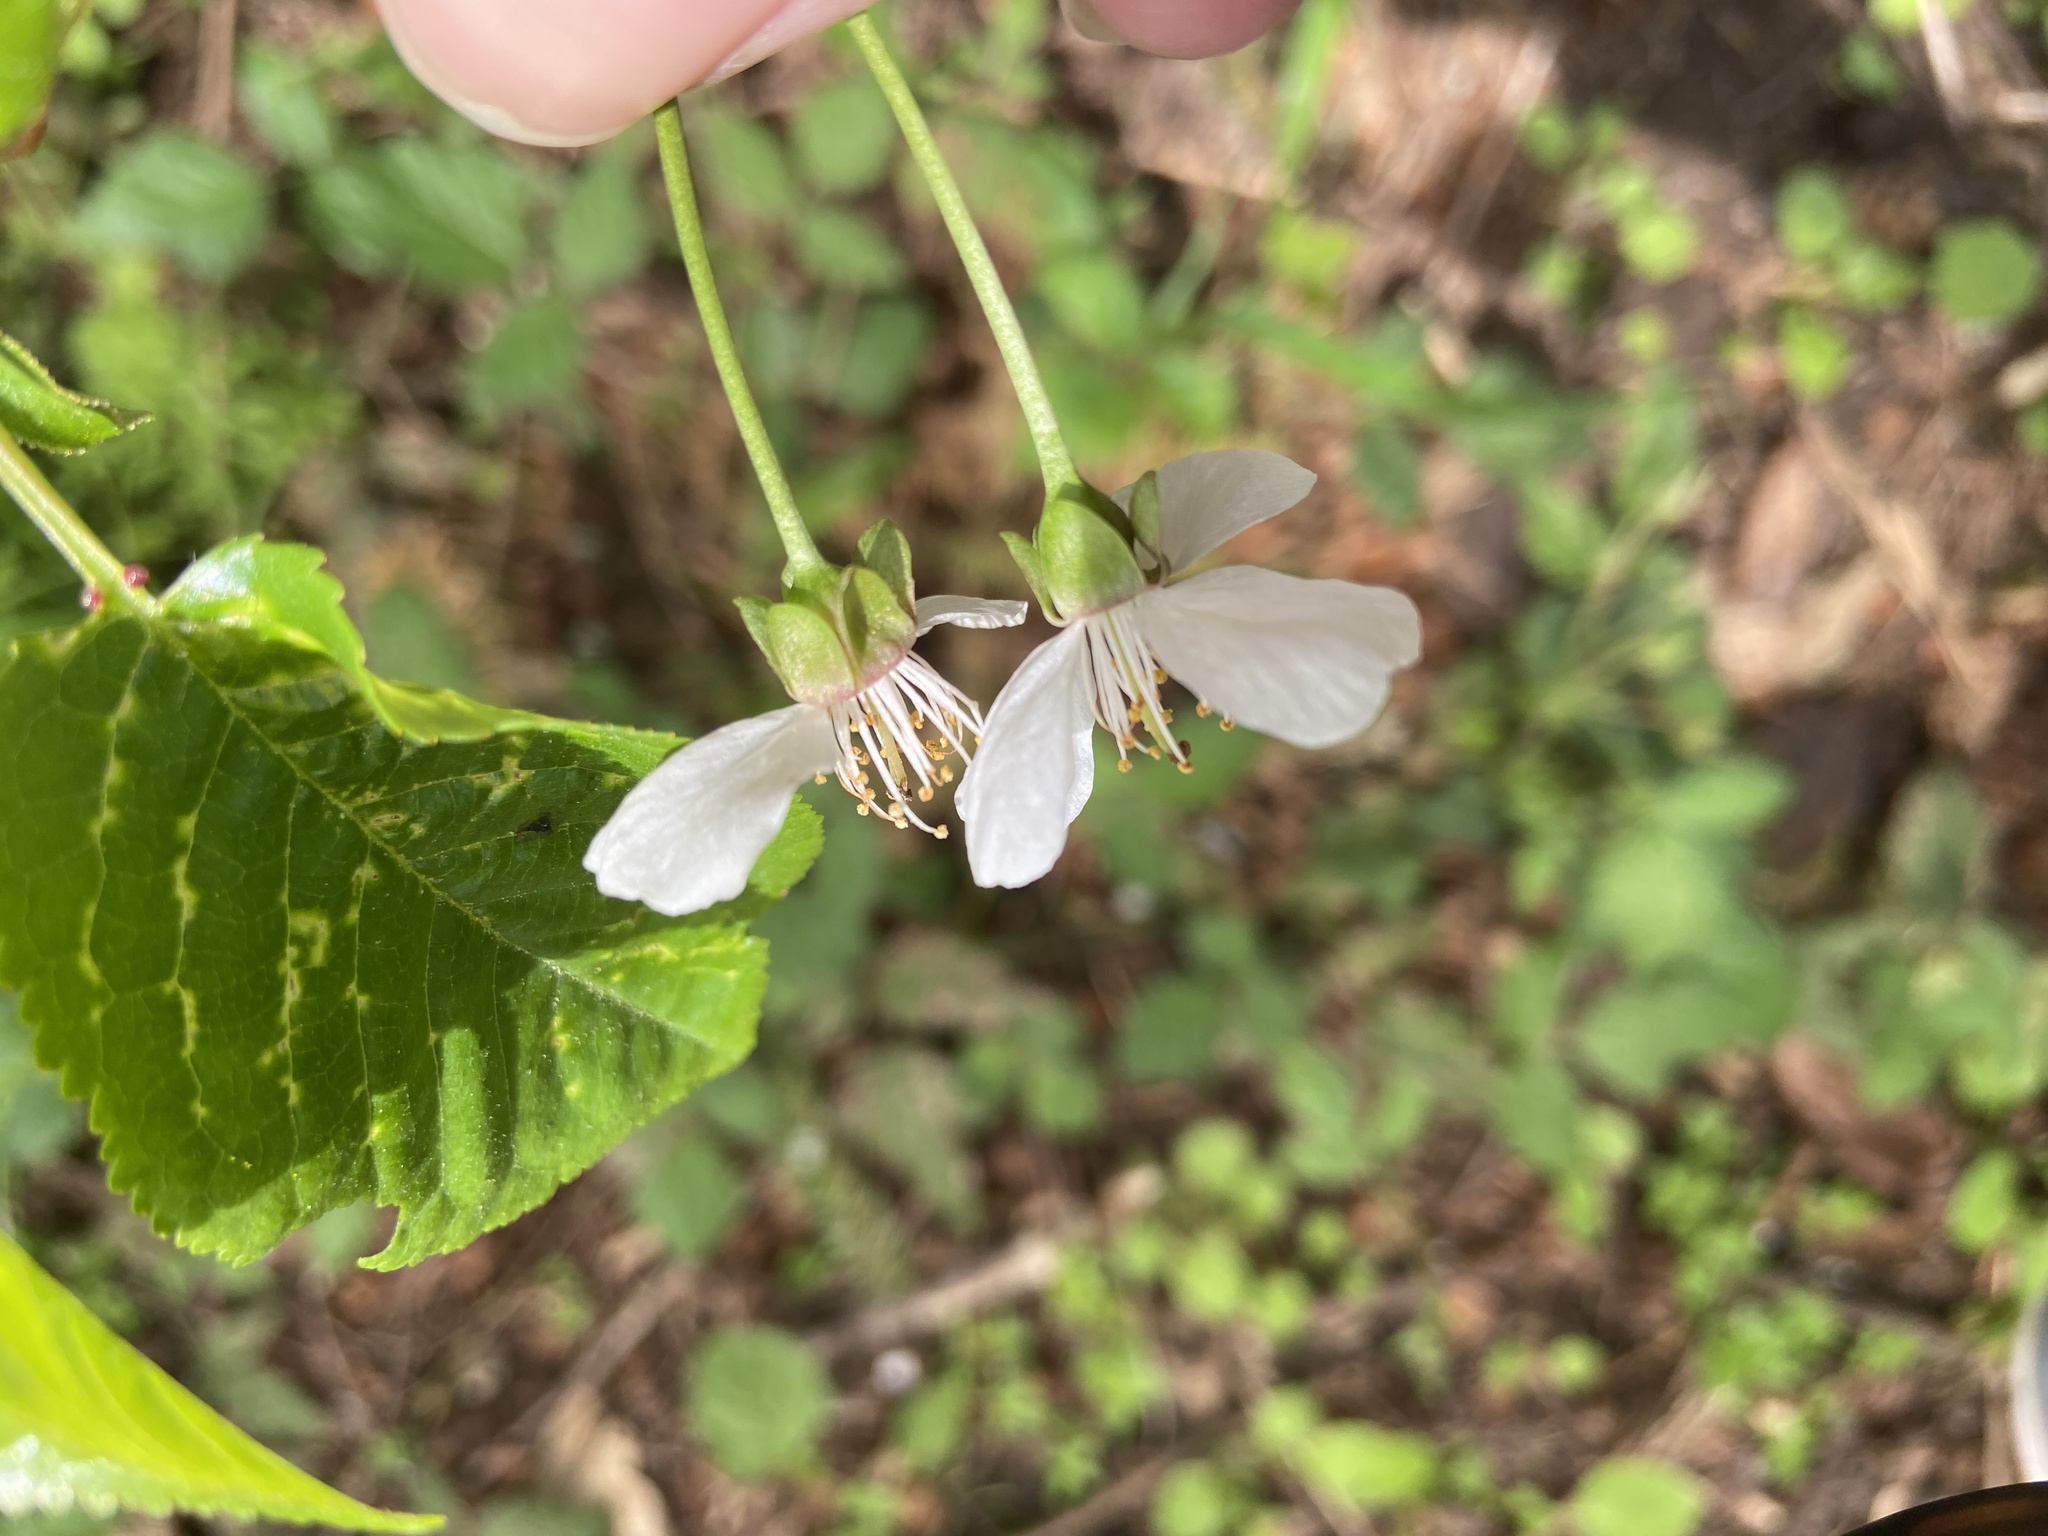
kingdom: Plantae
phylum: Tracheophyta
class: Magnoliopsida
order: Rosales
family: Rosaceae
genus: Prunus
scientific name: Prunus avium
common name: Sweet cherry
